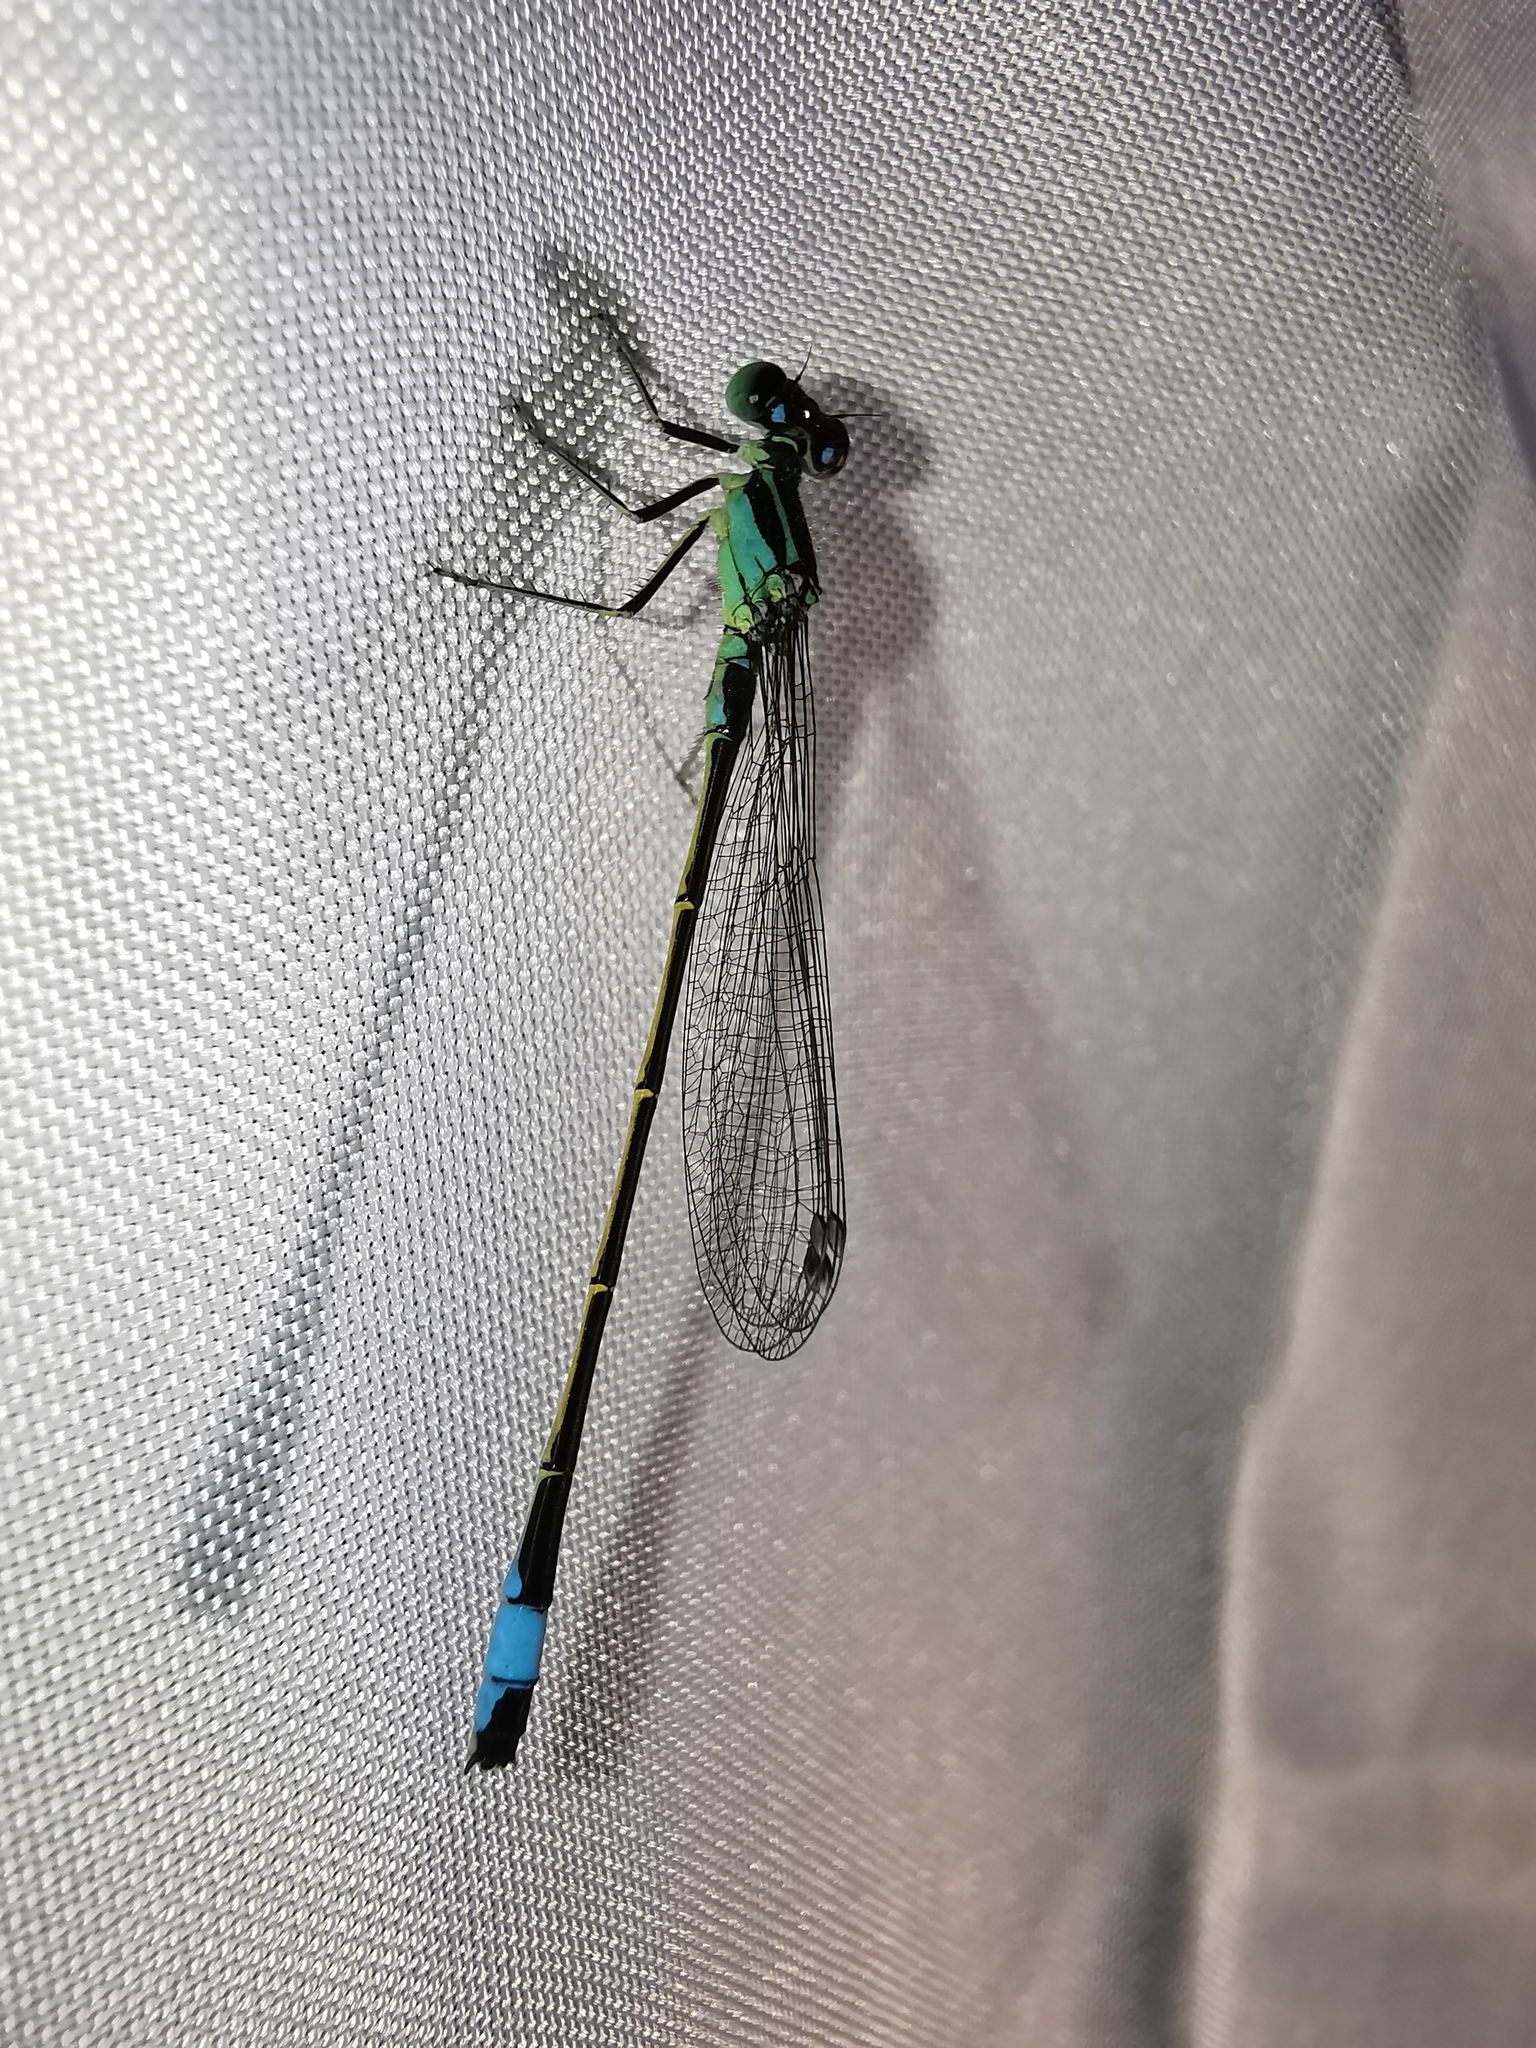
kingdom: Animalia
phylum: Arthropoda
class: Insecta
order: Odonata
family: Coenagrionidae
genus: Ischnura
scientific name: Ischnura elegans
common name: Blue-tailed damselfly
